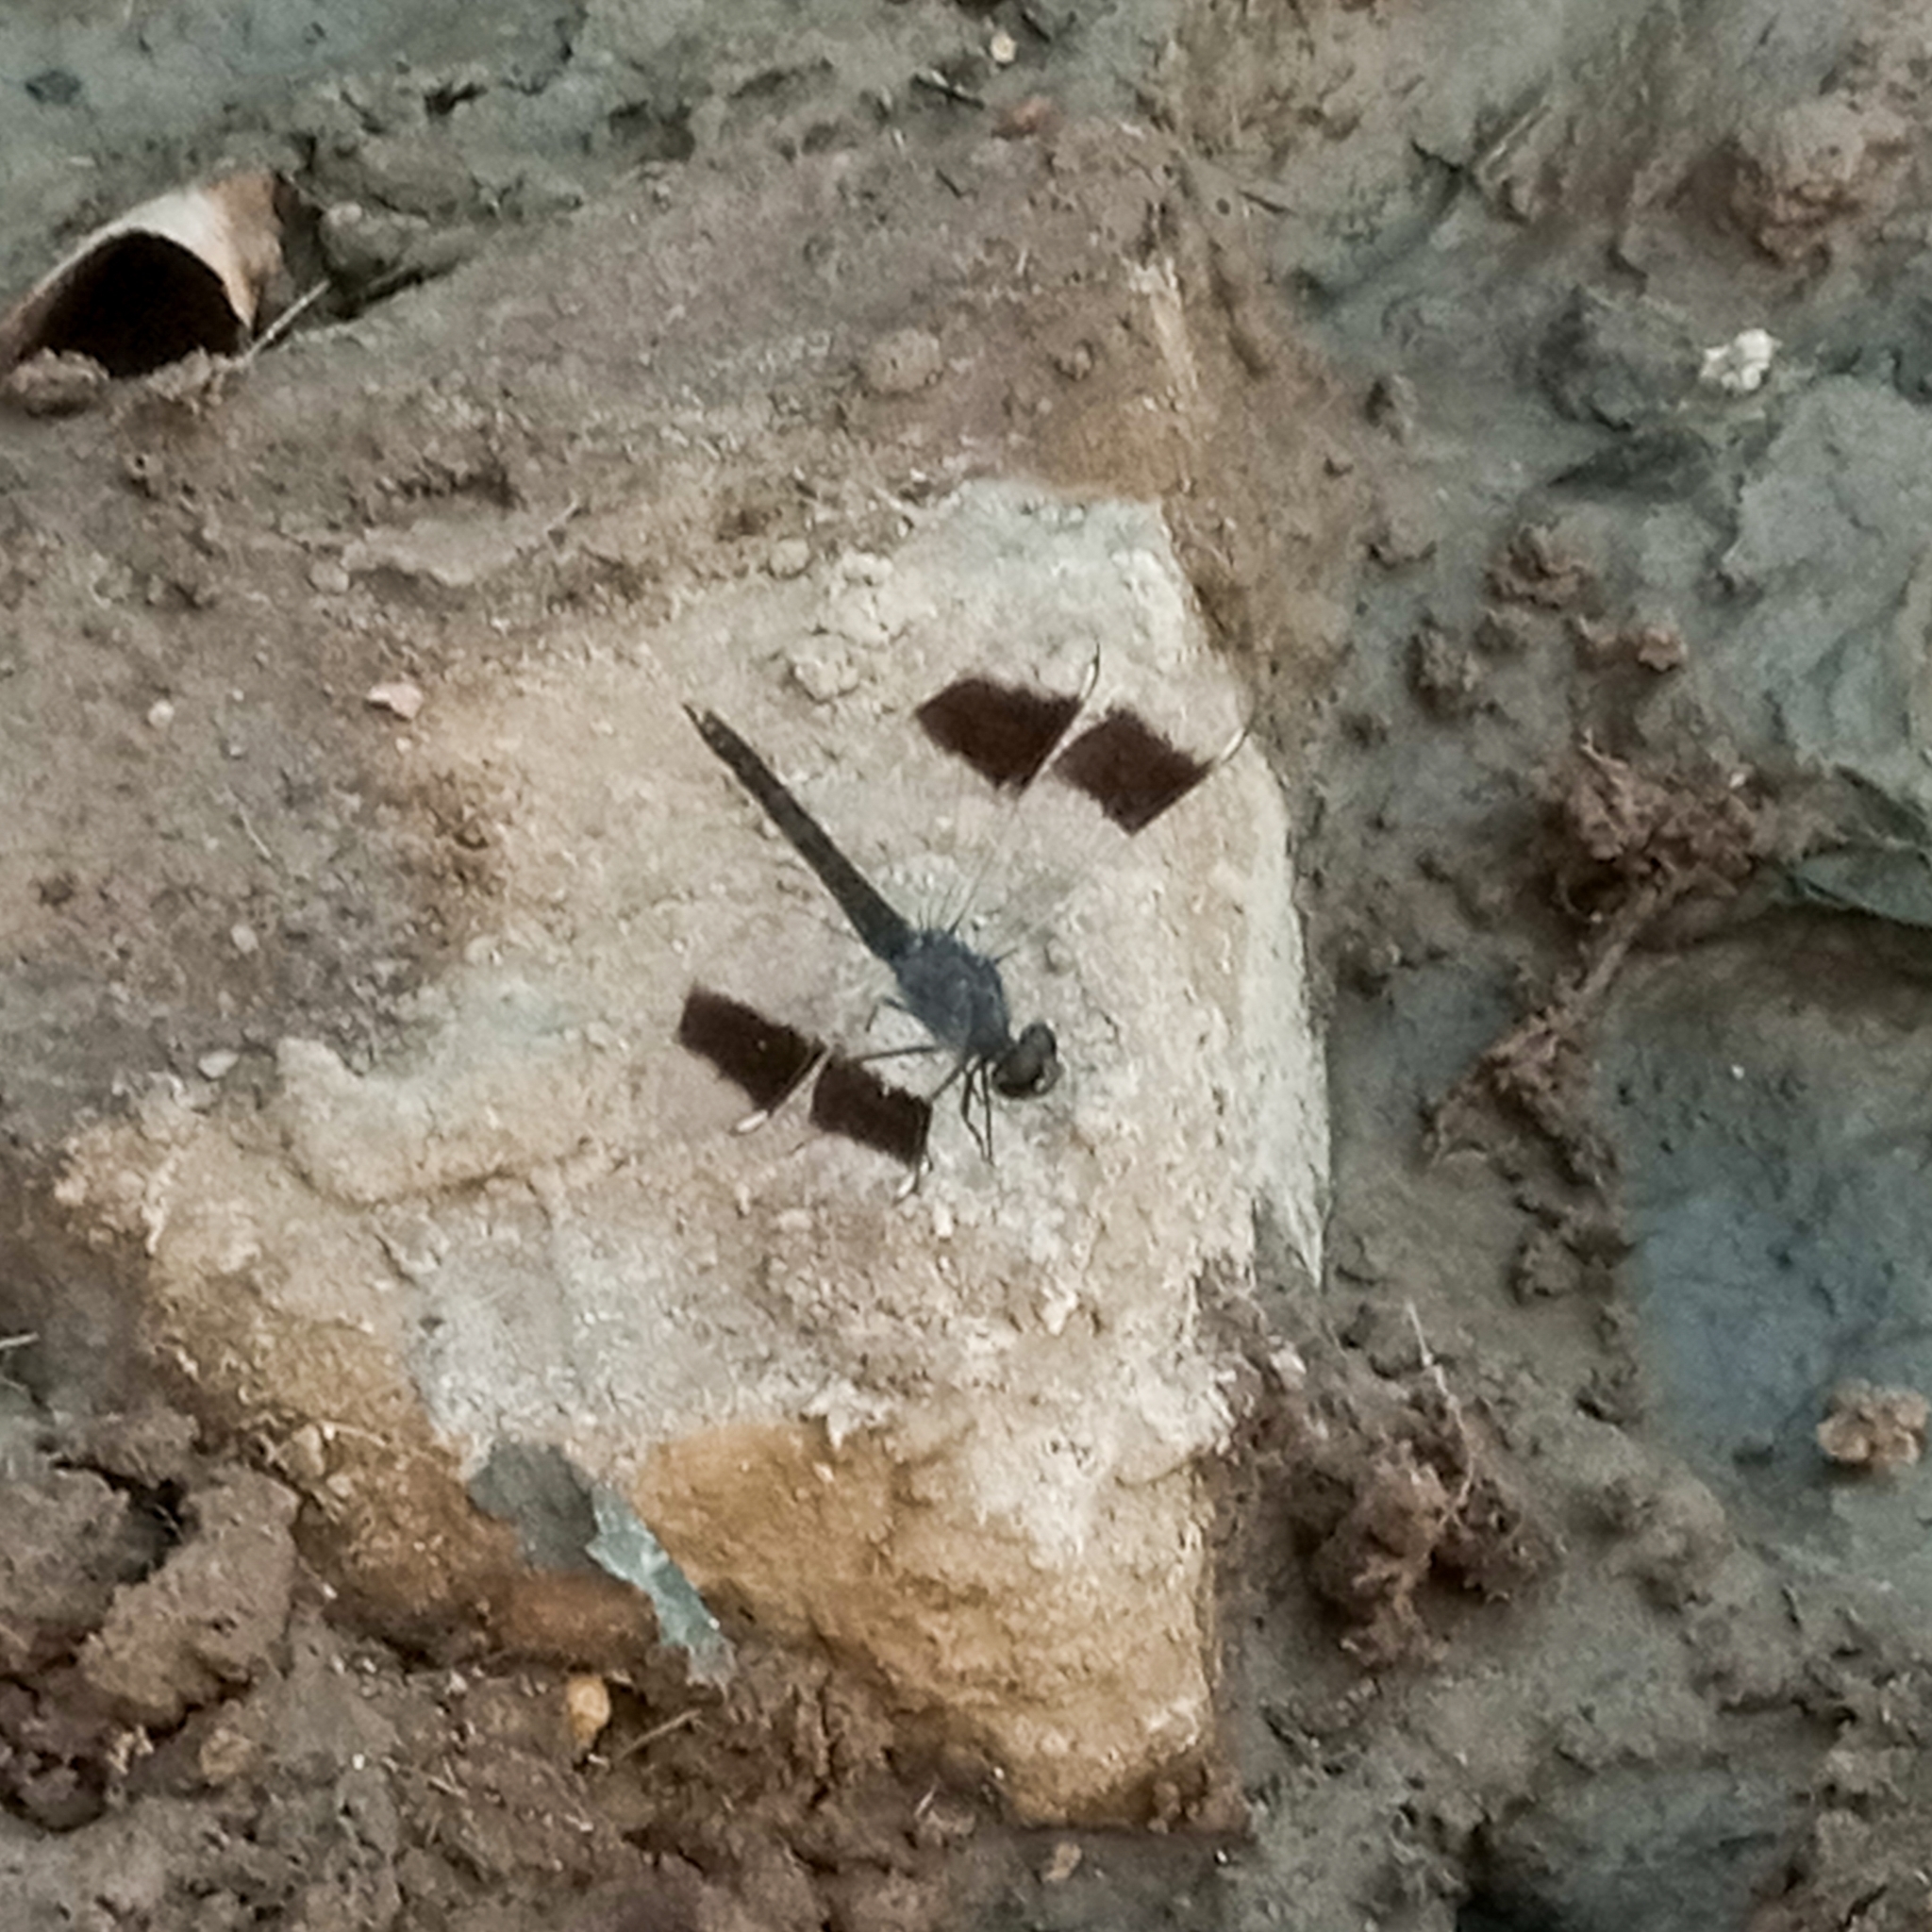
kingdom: Animalia
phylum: Arthropoda
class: Insecta
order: Odonata
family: Libellulidae
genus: Brachythemis
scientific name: Brachythemis impartita
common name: Banded groundling
